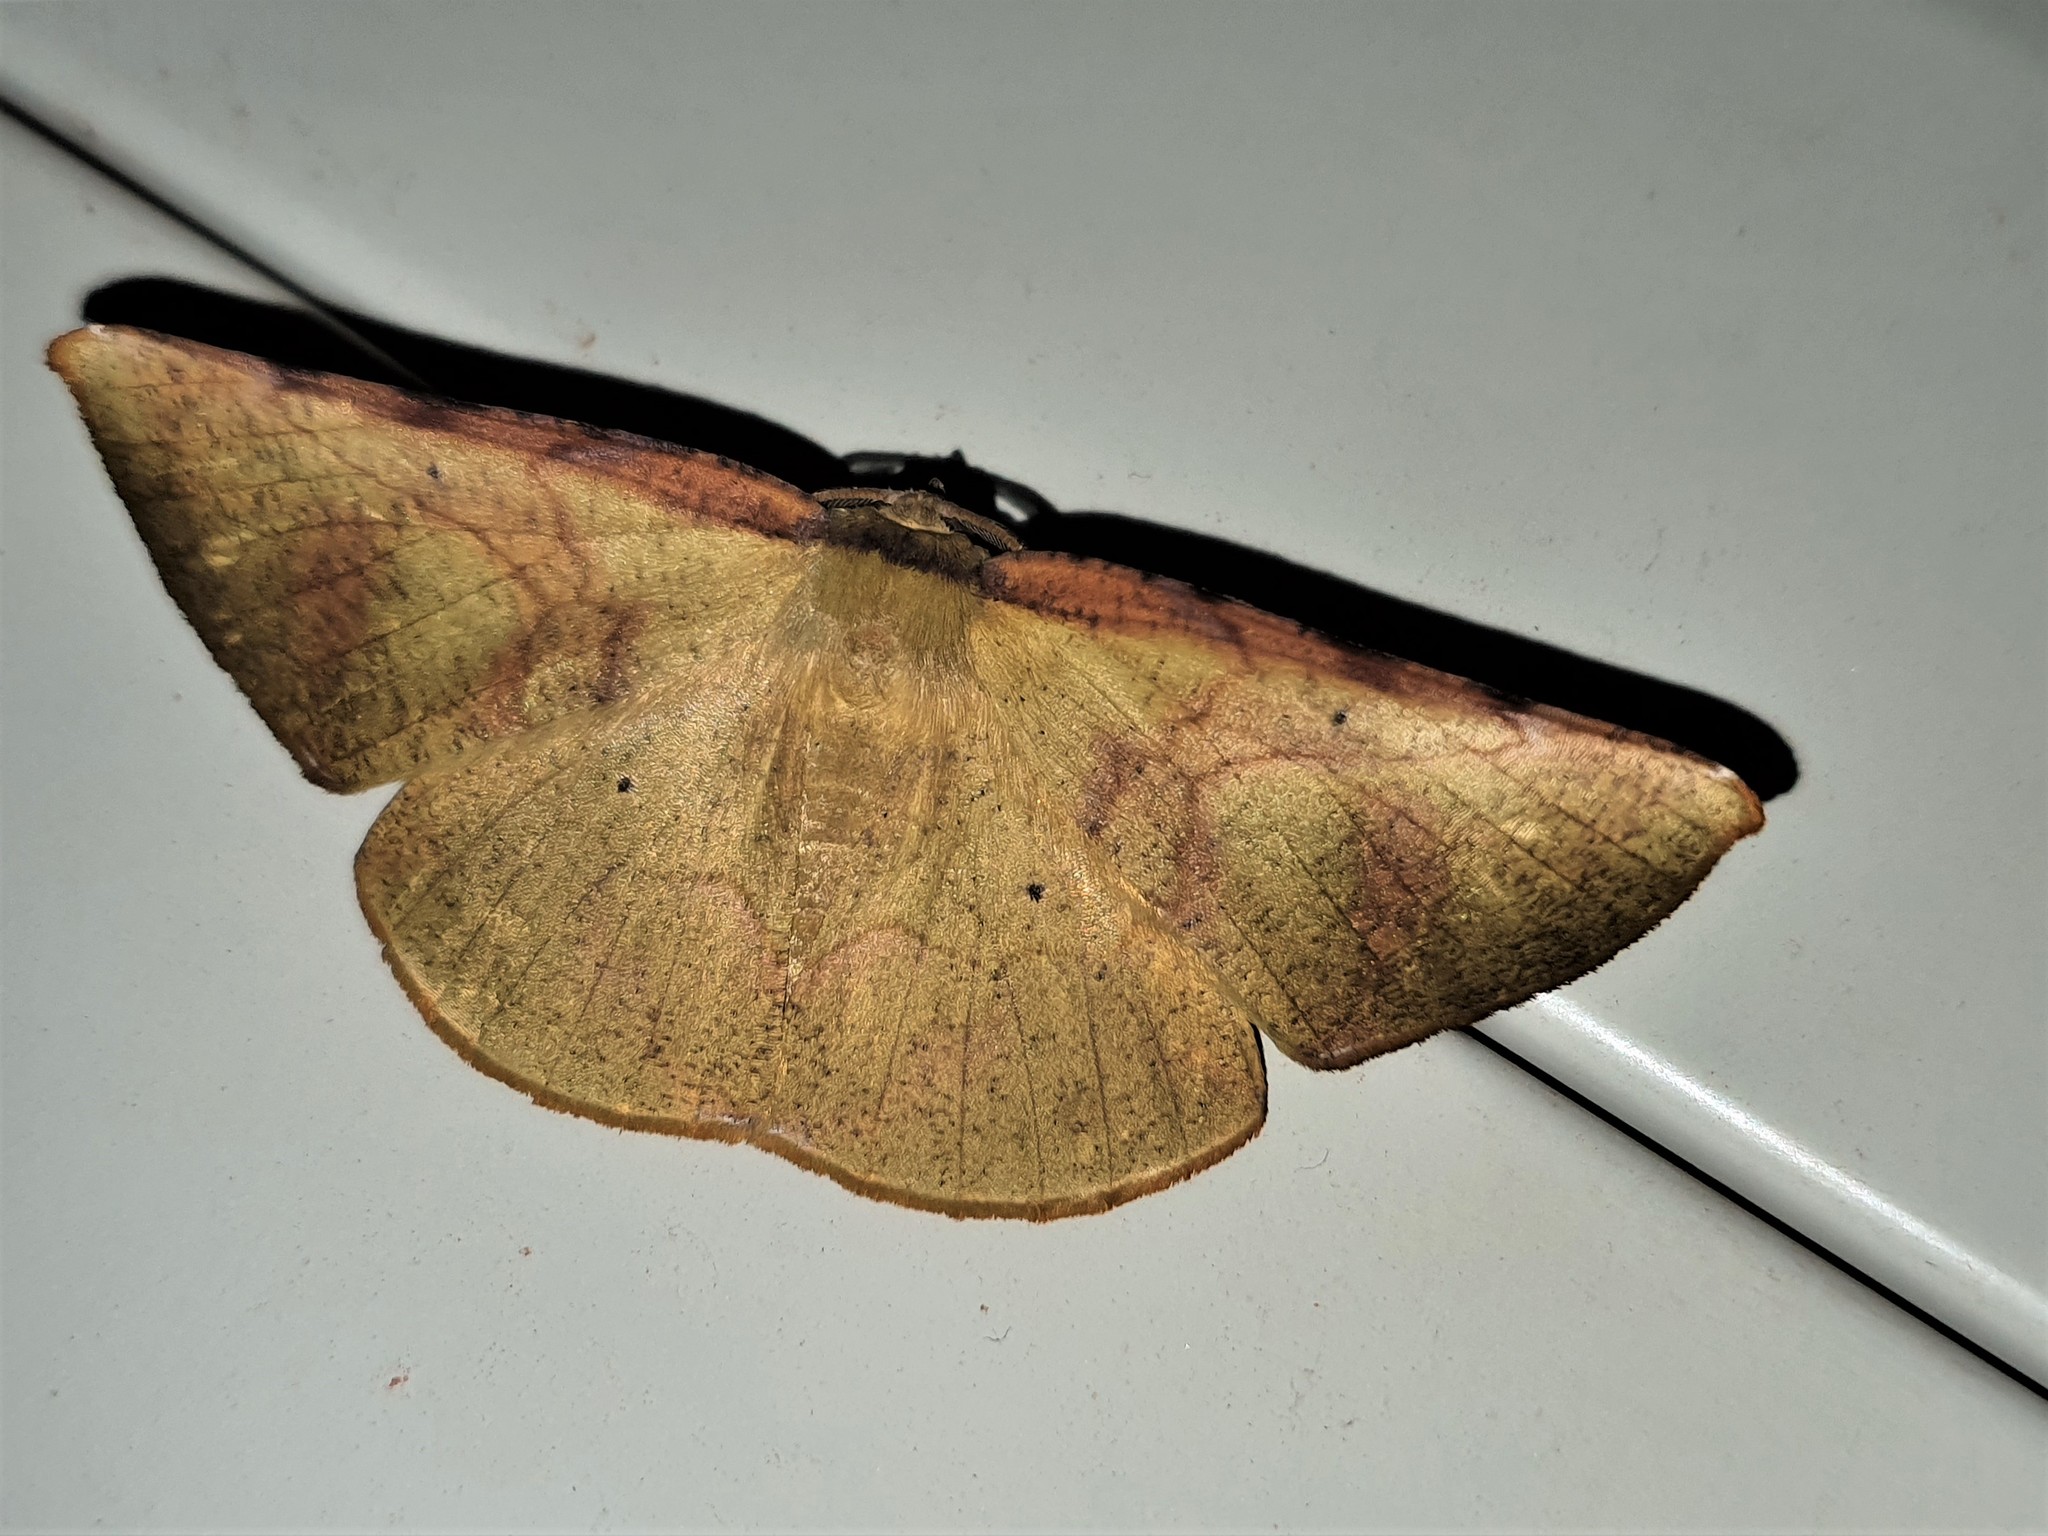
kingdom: Animalia
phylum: Arthropoda
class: Insecta
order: Lepidoptera
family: Geometridae
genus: Simopteryx
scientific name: Simopteryx bicurvata
